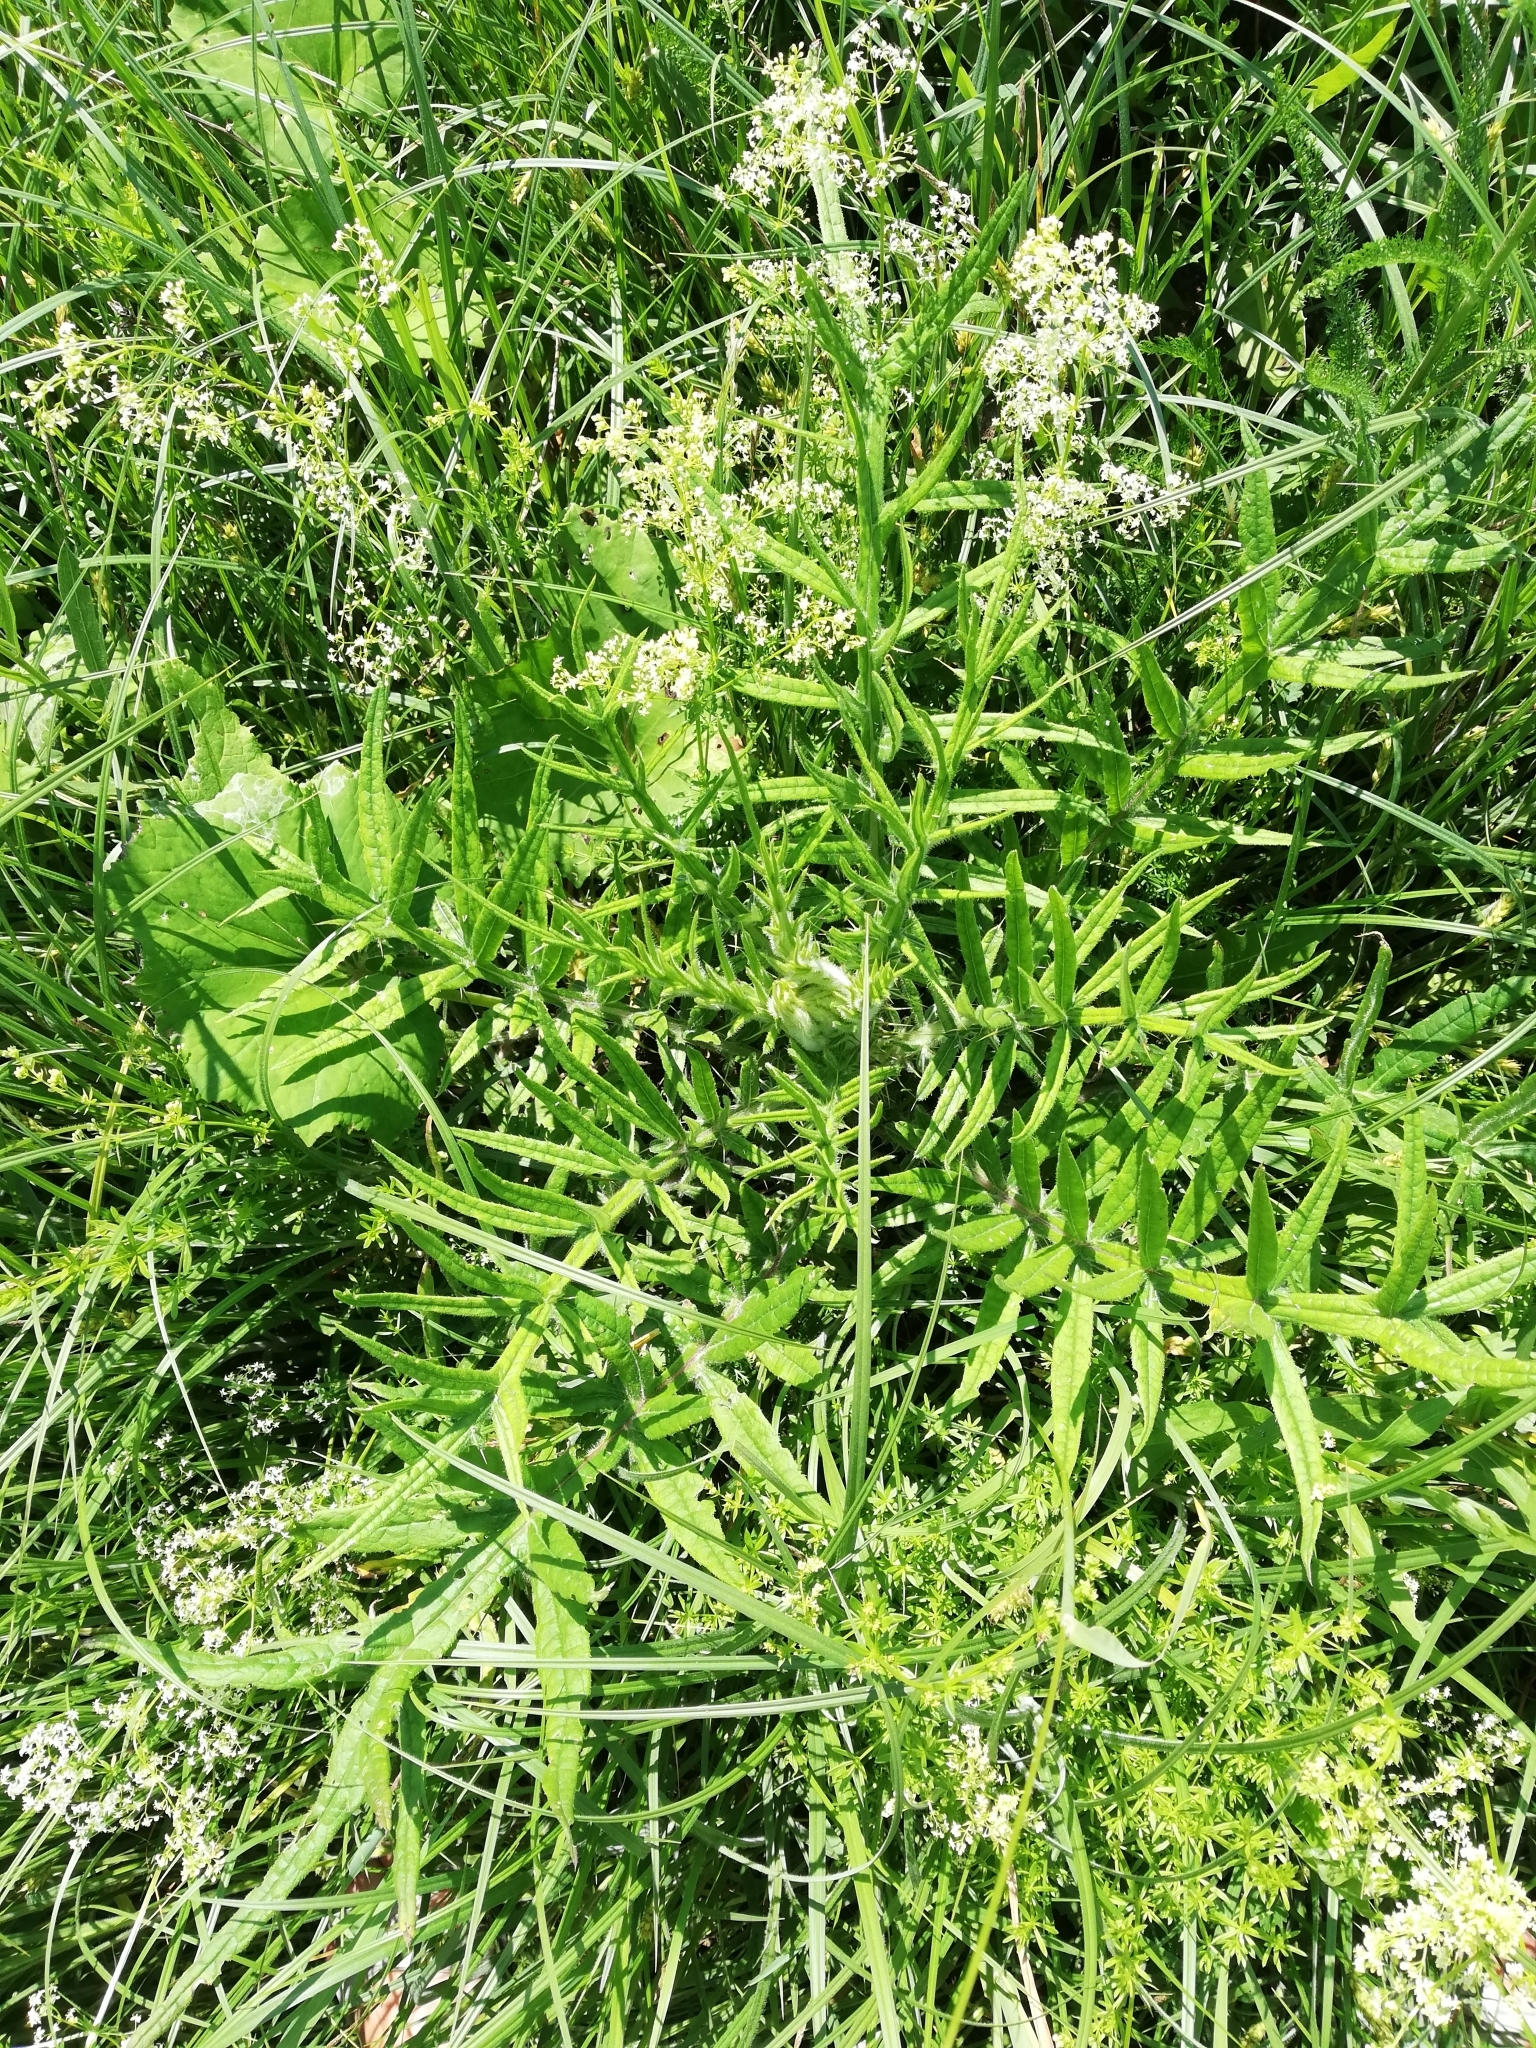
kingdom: Plantae
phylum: Tracheophyta
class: Magnoliopsida
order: Asterales
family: Asteraceae
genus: Lophiolepis
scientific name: Lophiolepis decussata
